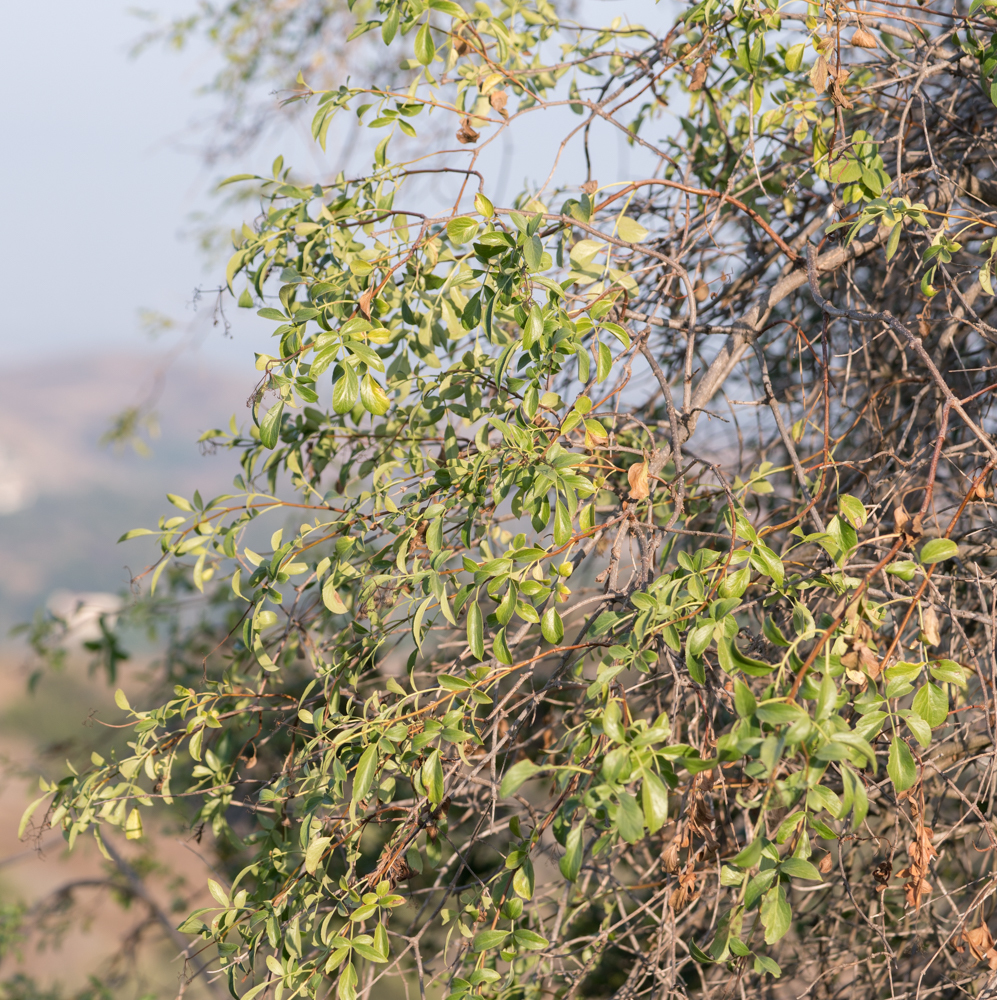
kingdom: Plantae
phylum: Tracheophyta
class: Magnoliopsida
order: Dipsacales
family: Viburnaceae
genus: Sambucus
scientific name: Sambucus cerulea
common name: Blue elder
